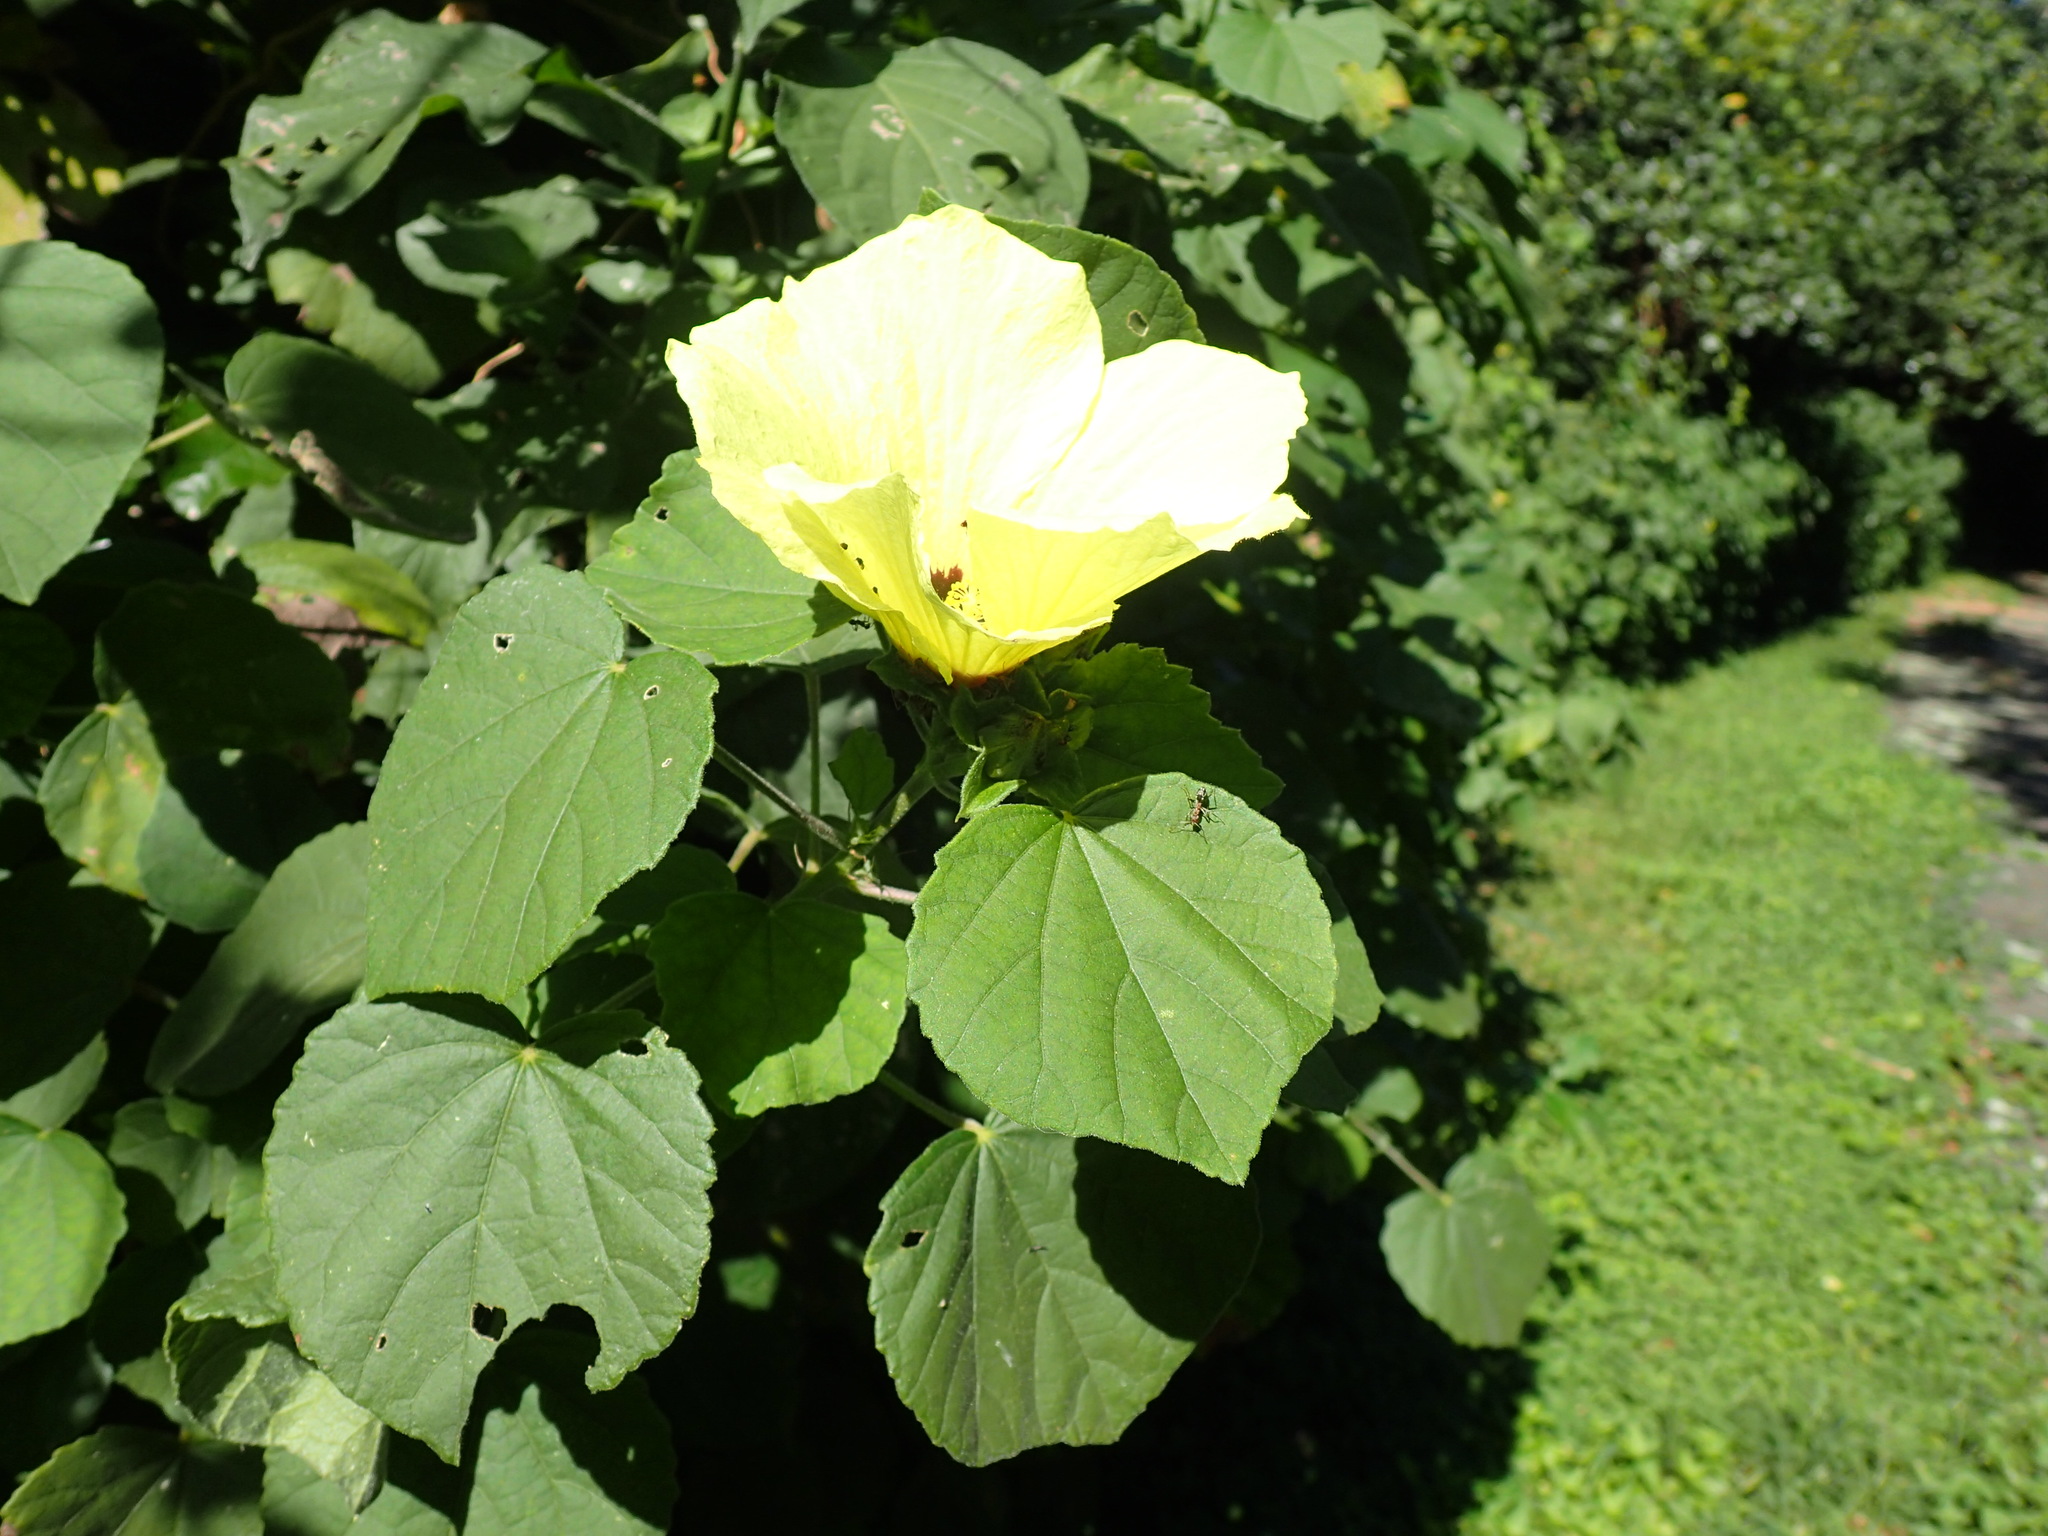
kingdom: Plantae
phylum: Tracheophyta
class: Magnoliopsida
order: Malvales
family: Malvaceae
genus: Hibiscus
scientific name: Hibiscus calyphyllus
